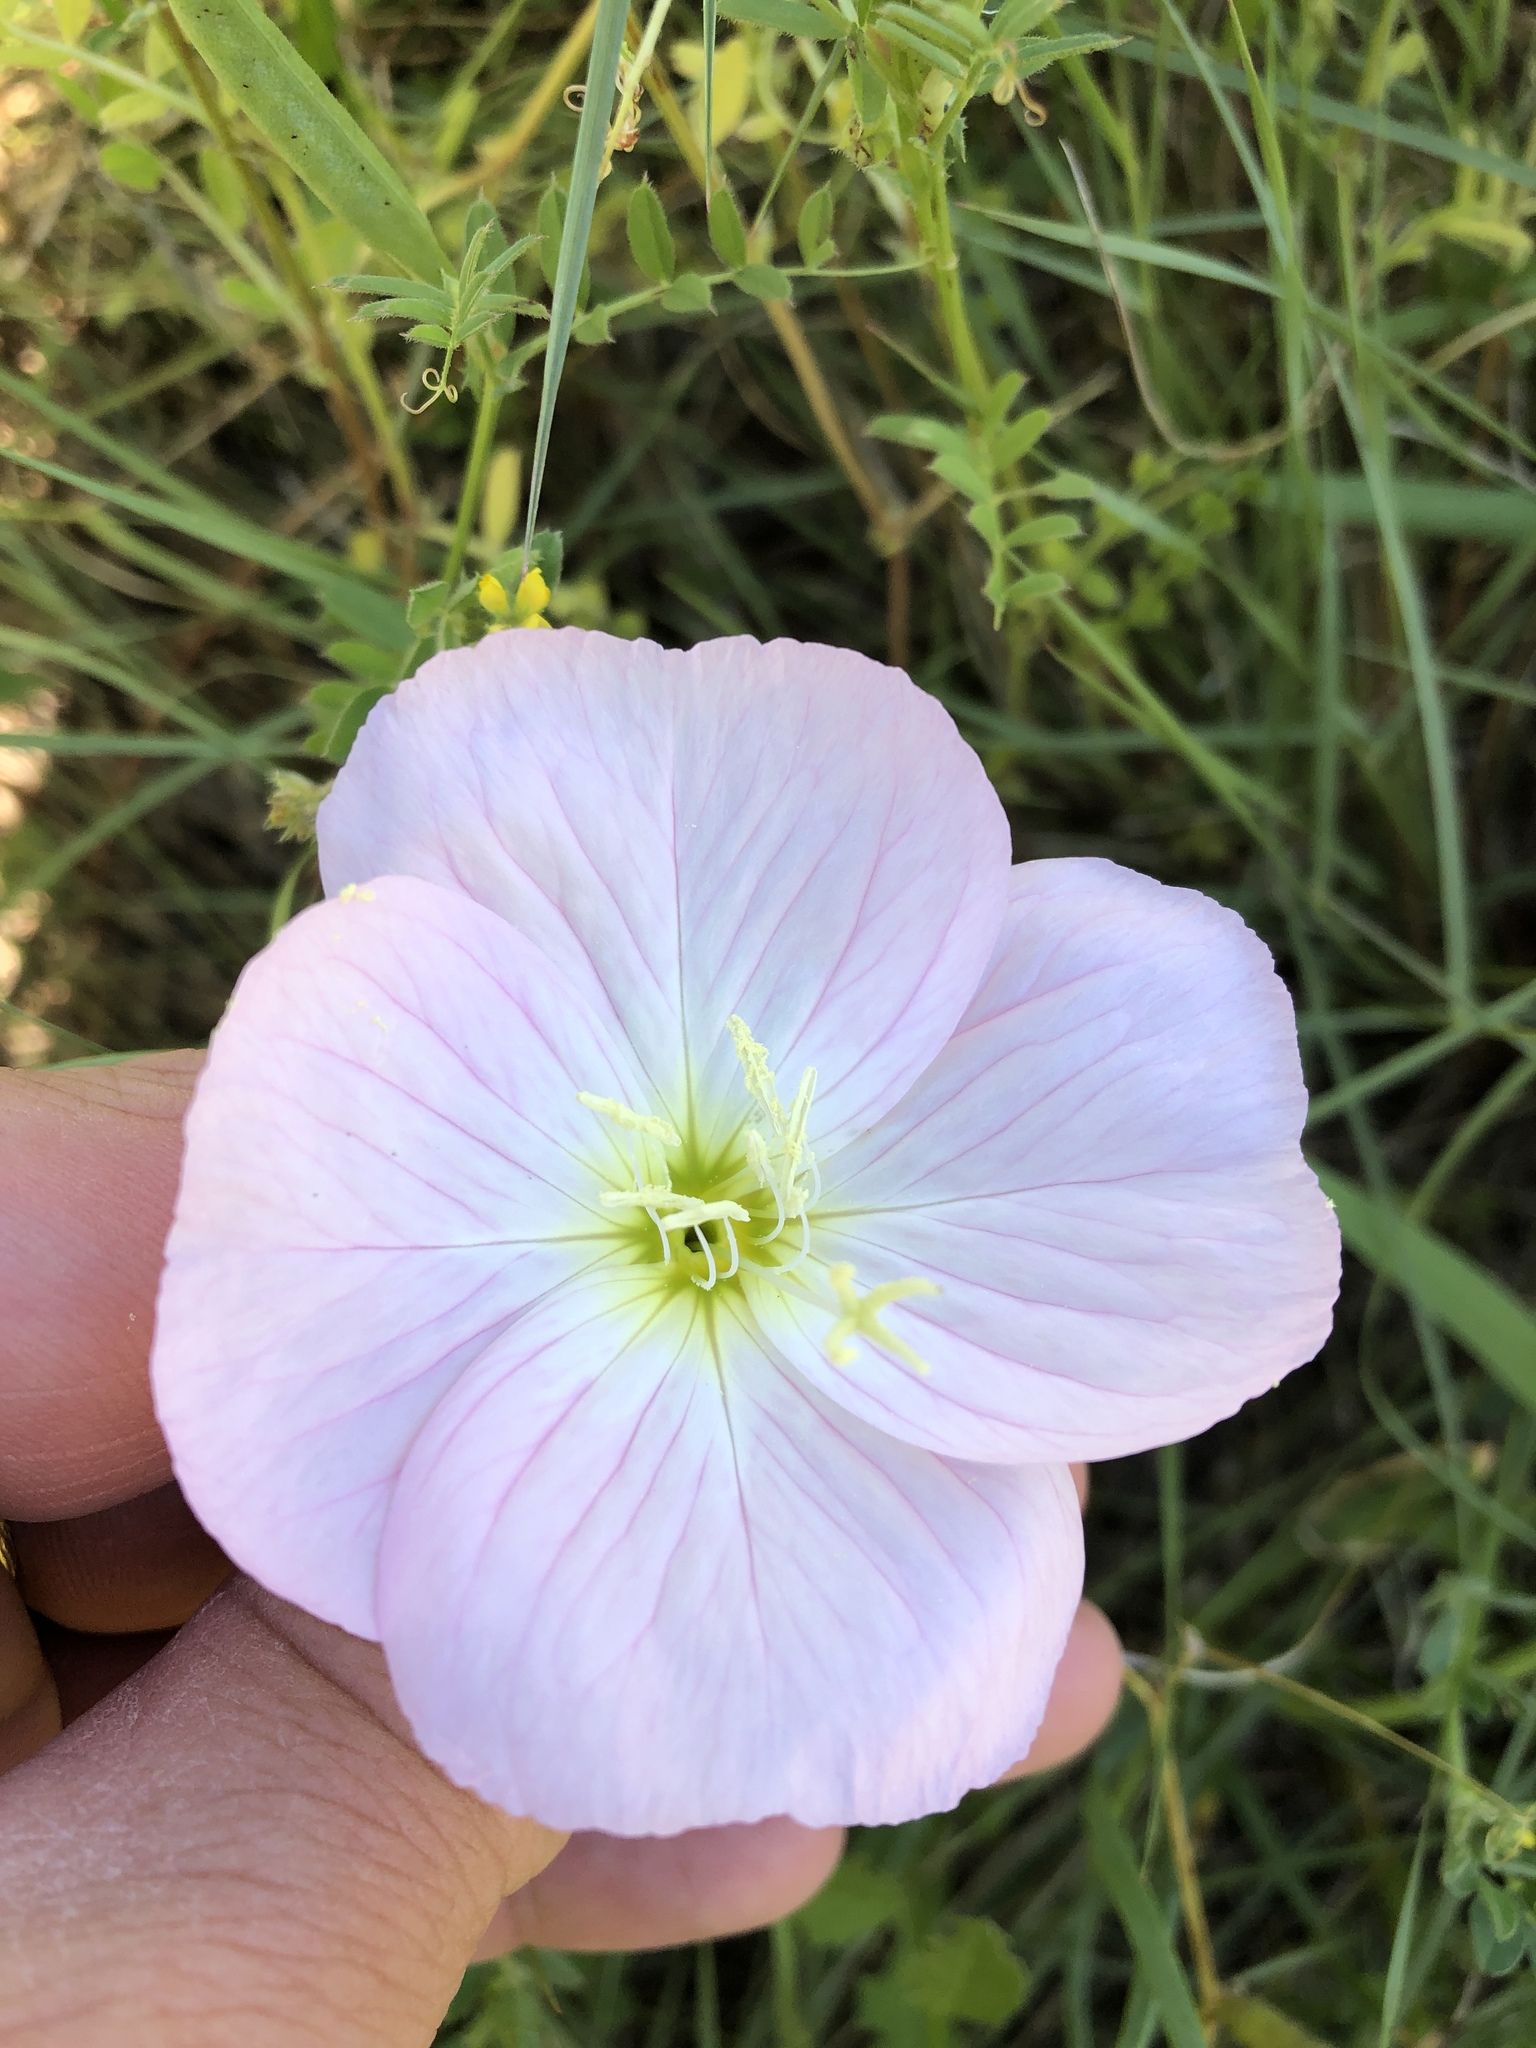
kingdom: Plantae
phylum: Tracheophyta
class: Magnoliopsida
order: Myrtales
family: Onagraceae
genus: Oenothera
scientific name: Oenothera speciosa
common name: White evening-primrose
